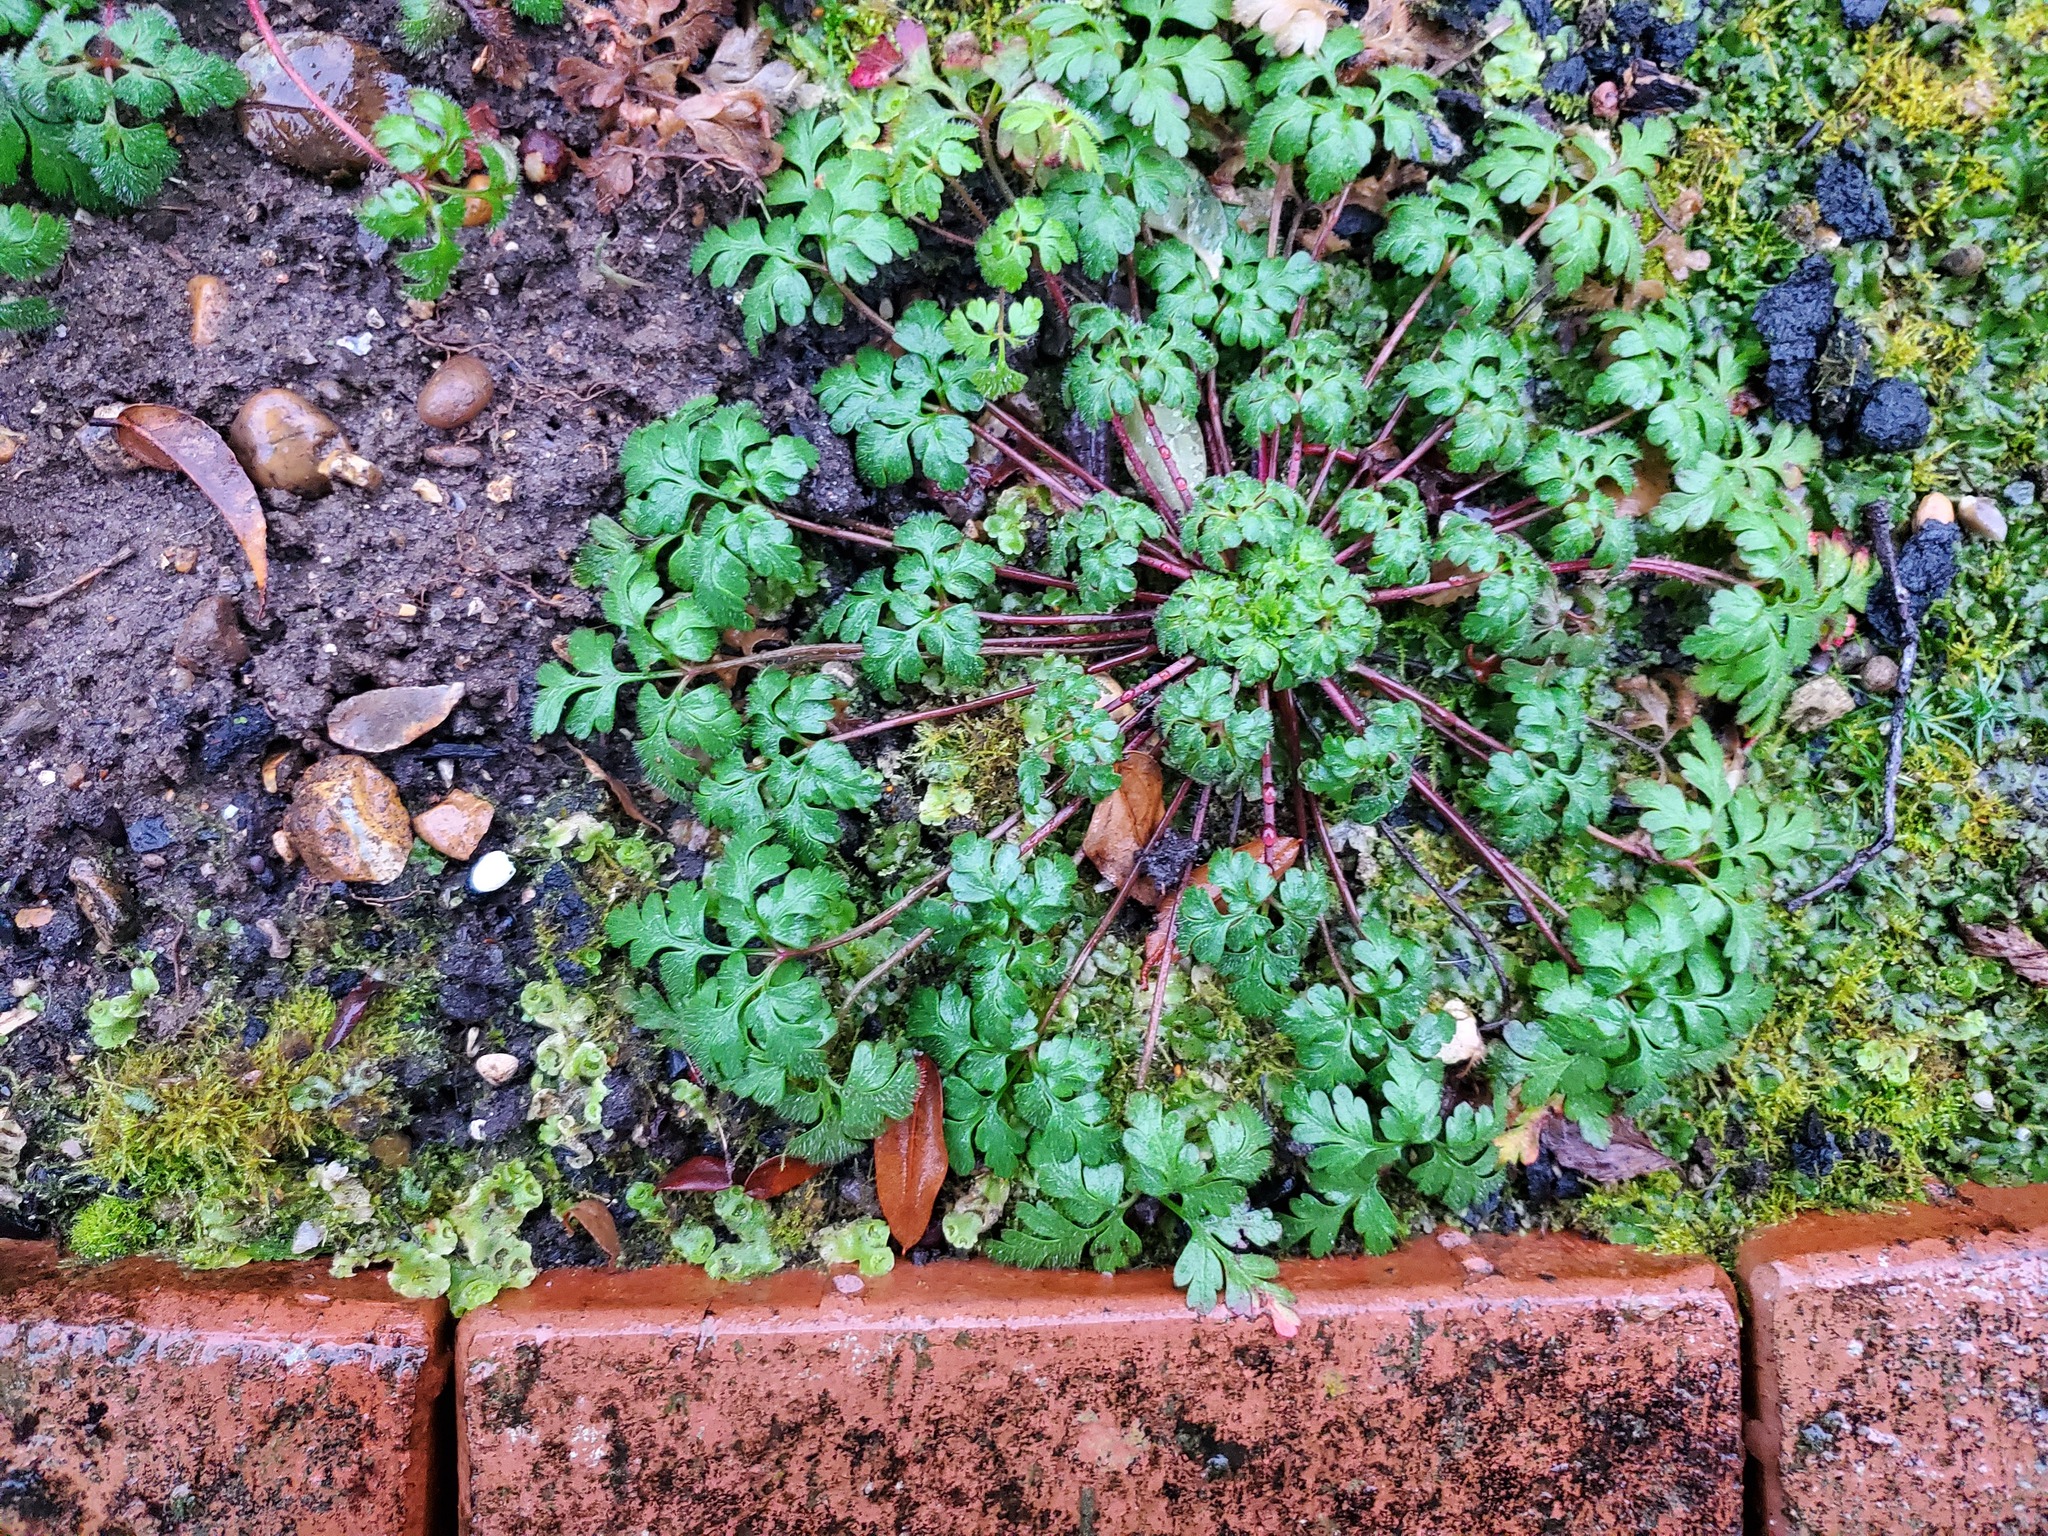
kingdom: Plantae
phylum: Tracheophyta
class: Magnoliopsida
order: Geraniales
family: Geraniaceae
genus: Geranium
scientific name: Geranium robertianum
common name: Herb-robert
